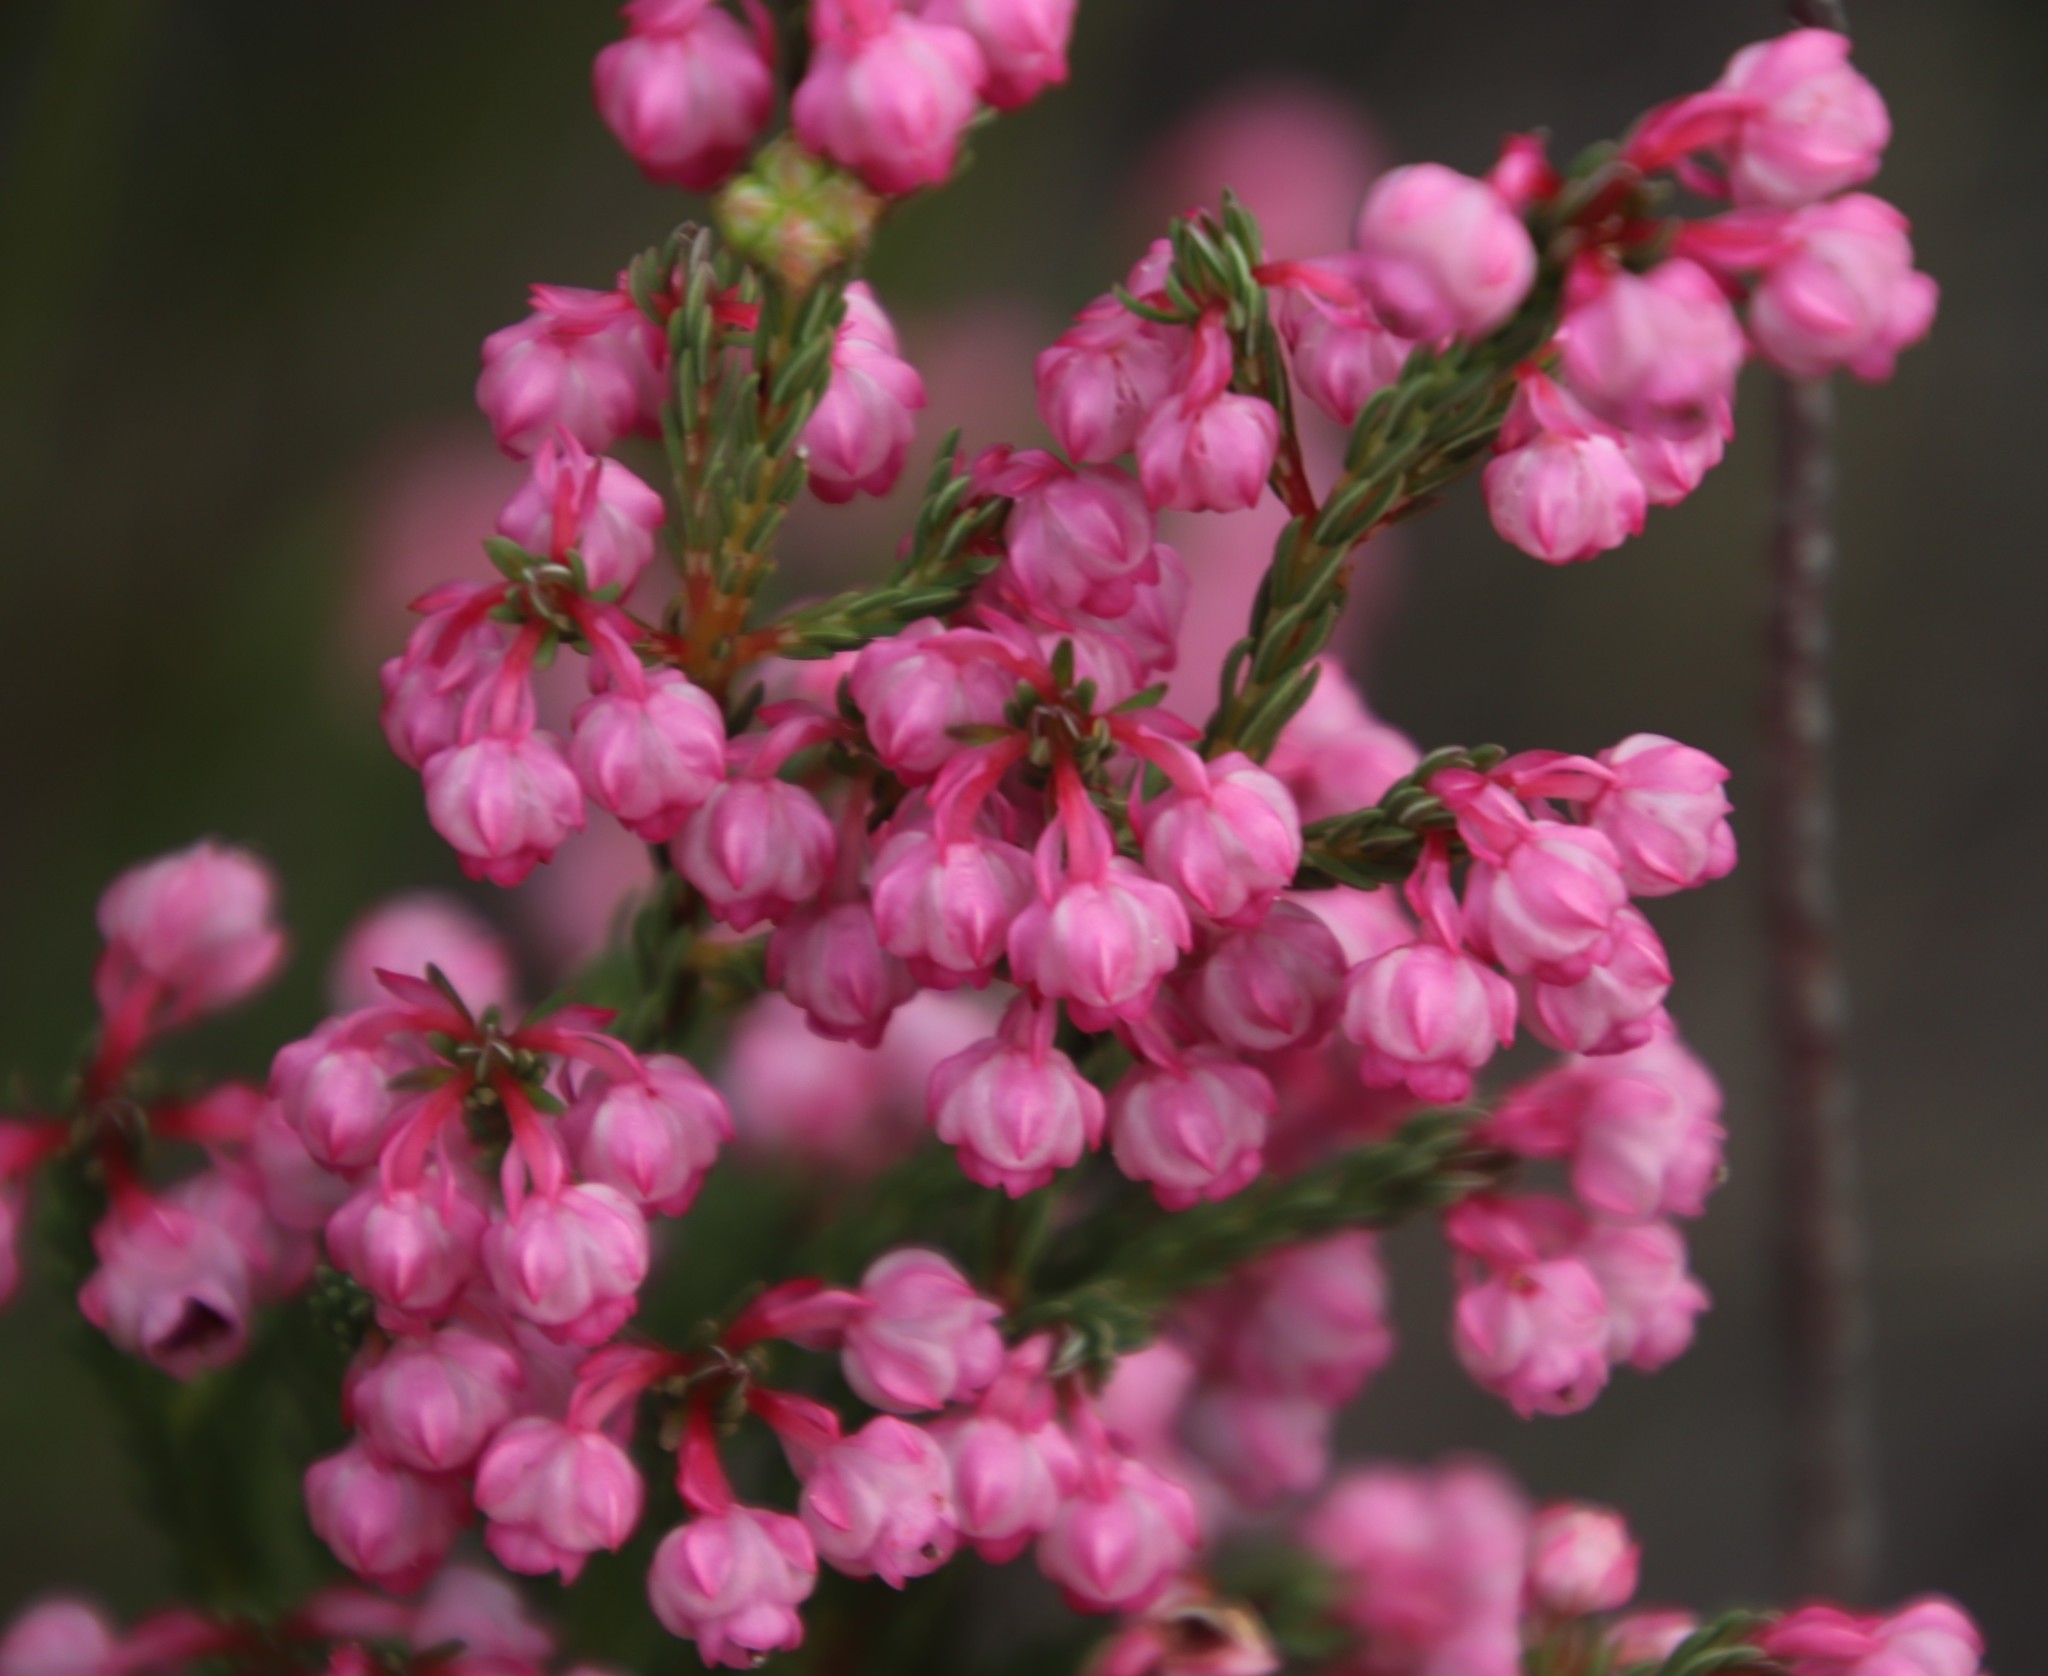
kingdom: Plantae
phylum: Tracheophyta
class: Magnoliopsida
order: Ericales
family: Ericaceae
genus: Erica
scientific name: Erica baccans
